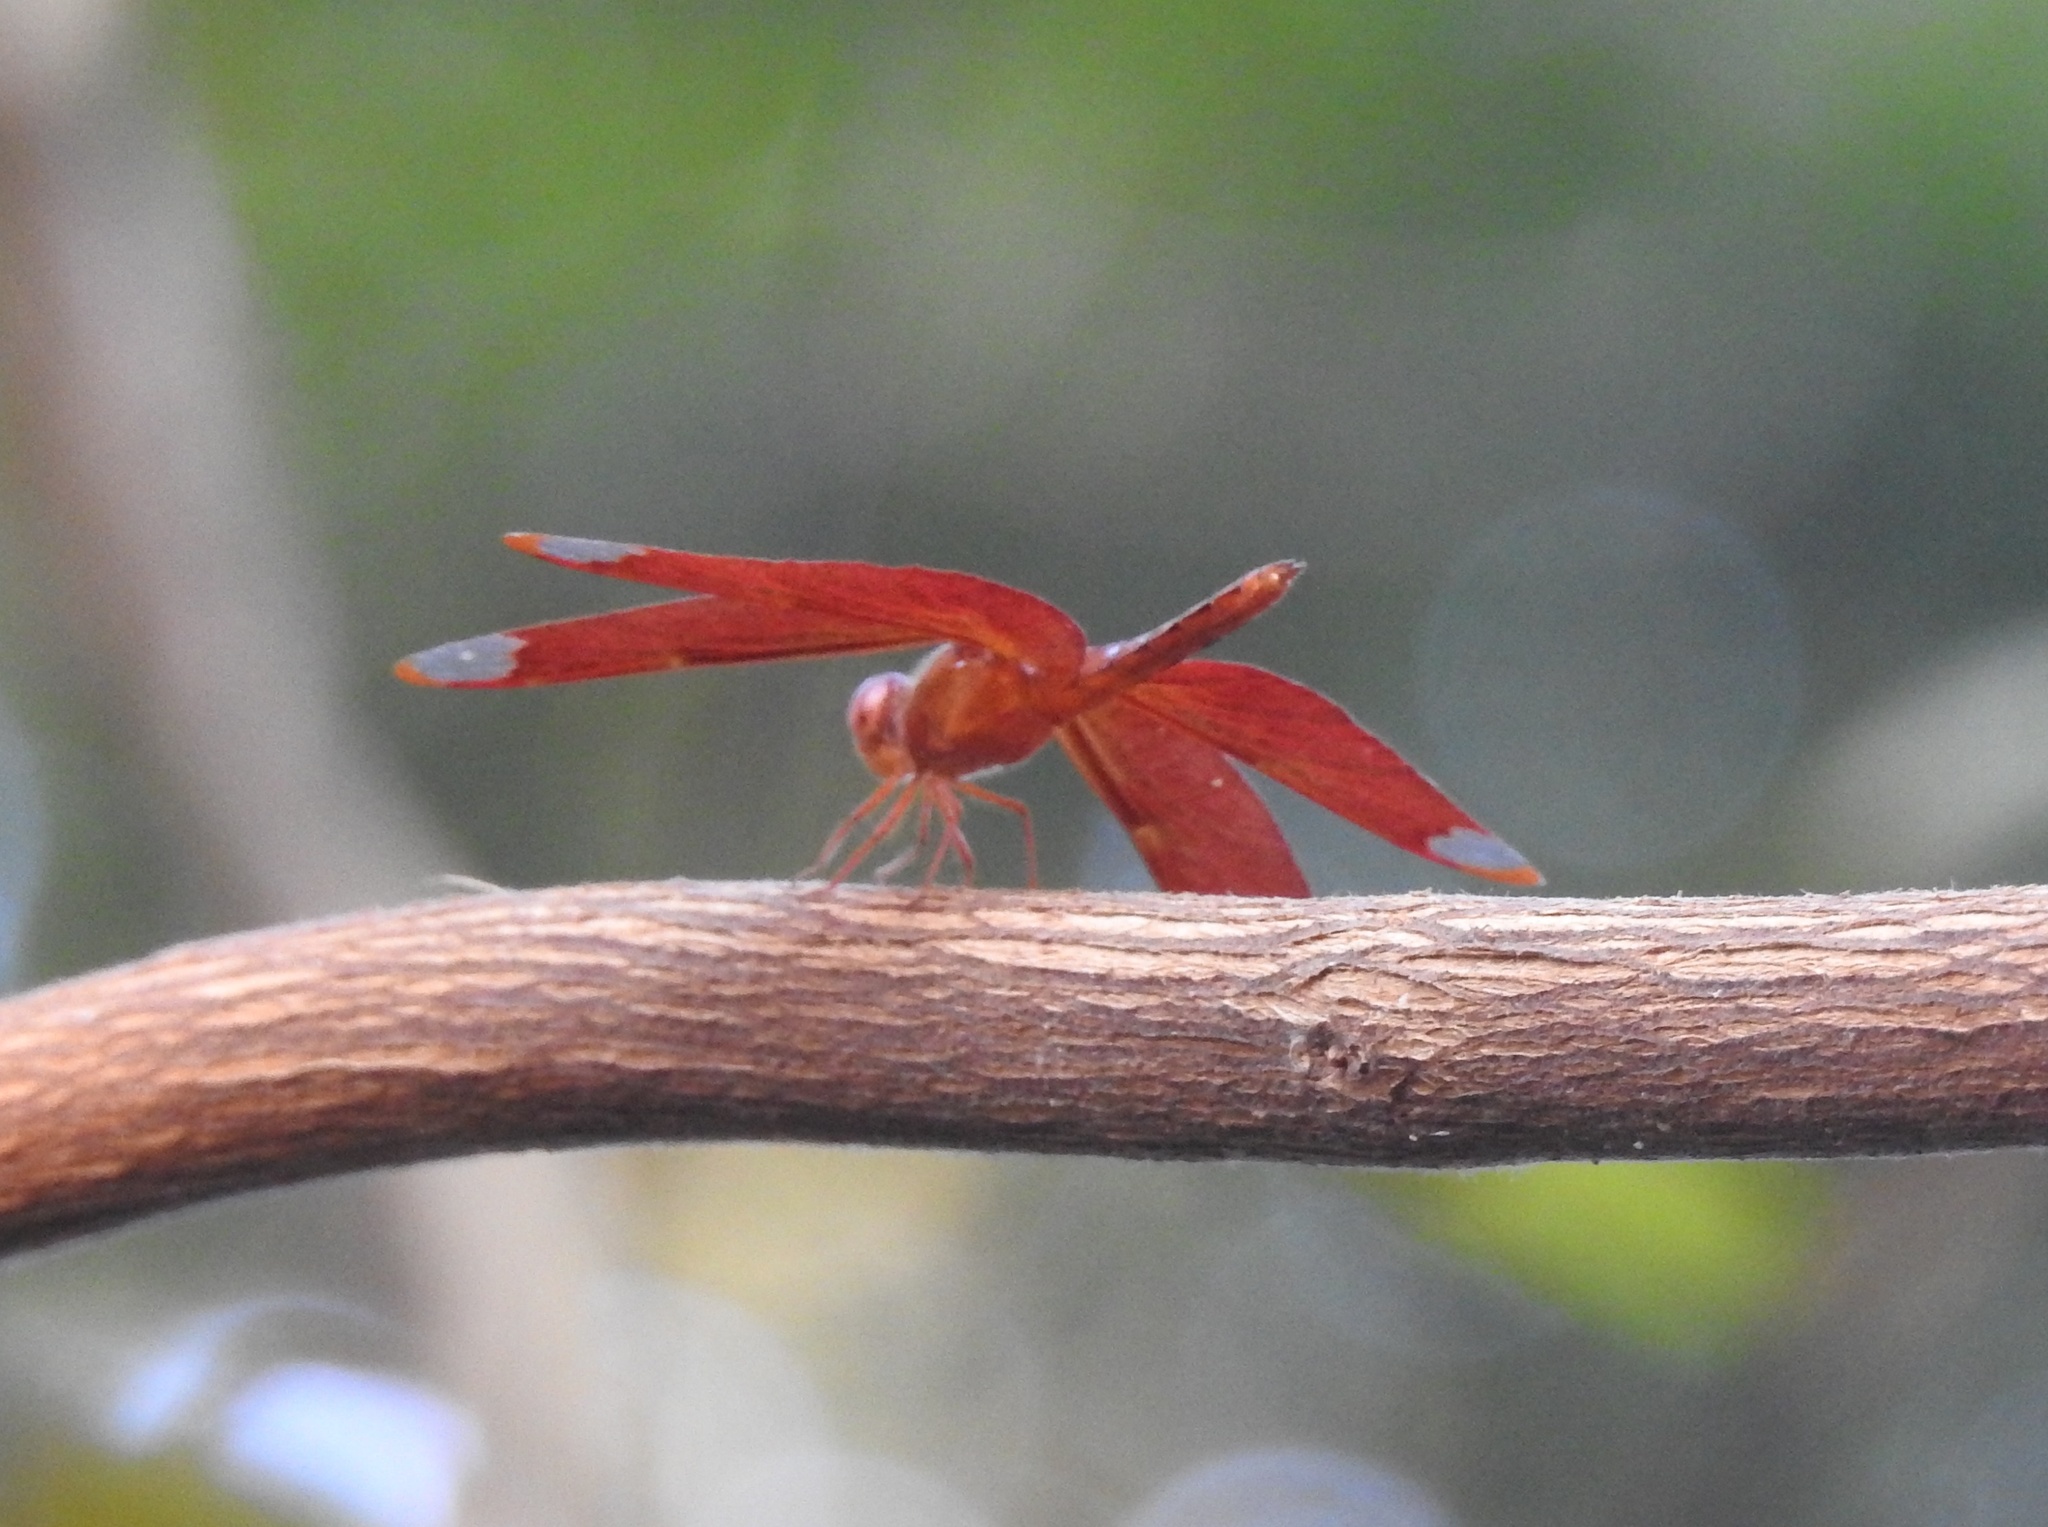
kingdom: Animalia
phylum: Arthropoda
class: Insecta
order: Odonata
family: Libellulidae
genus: Neurothemis
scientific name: Neurothemis fulvia
